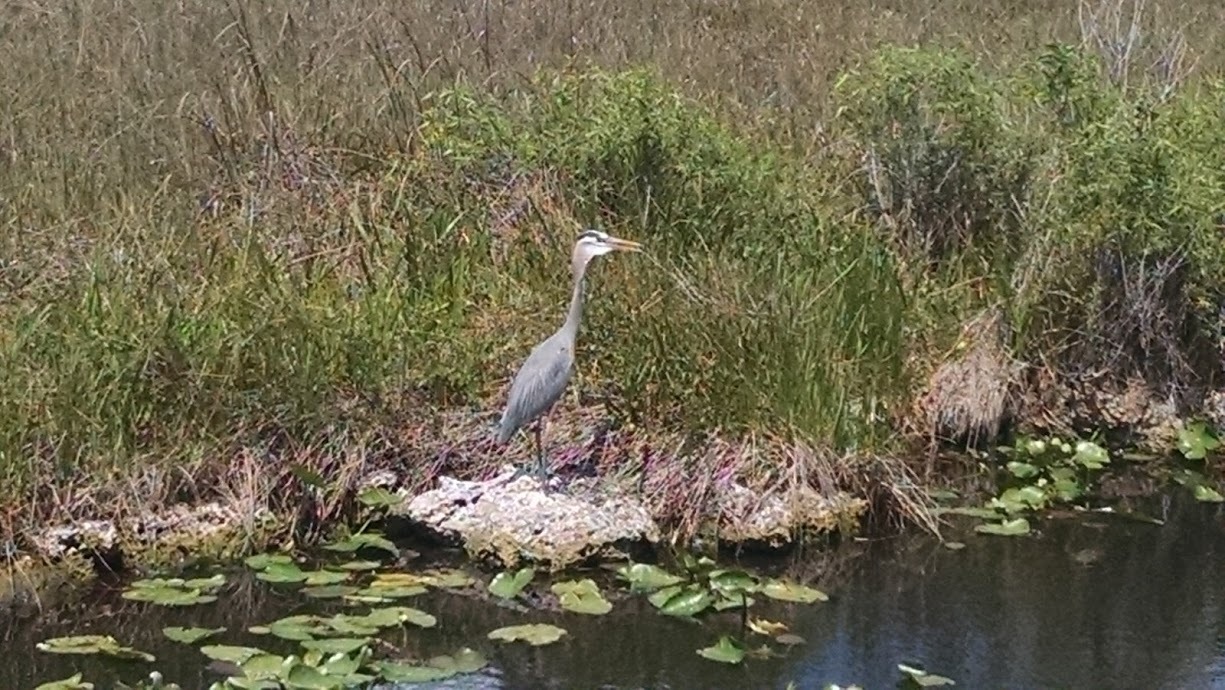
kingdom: Animalia
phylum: Chordata
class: Aves
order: Pelecaniformes
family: Ardeidae
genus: Ardea
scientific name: Ardea herodias
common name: Great blue heron
